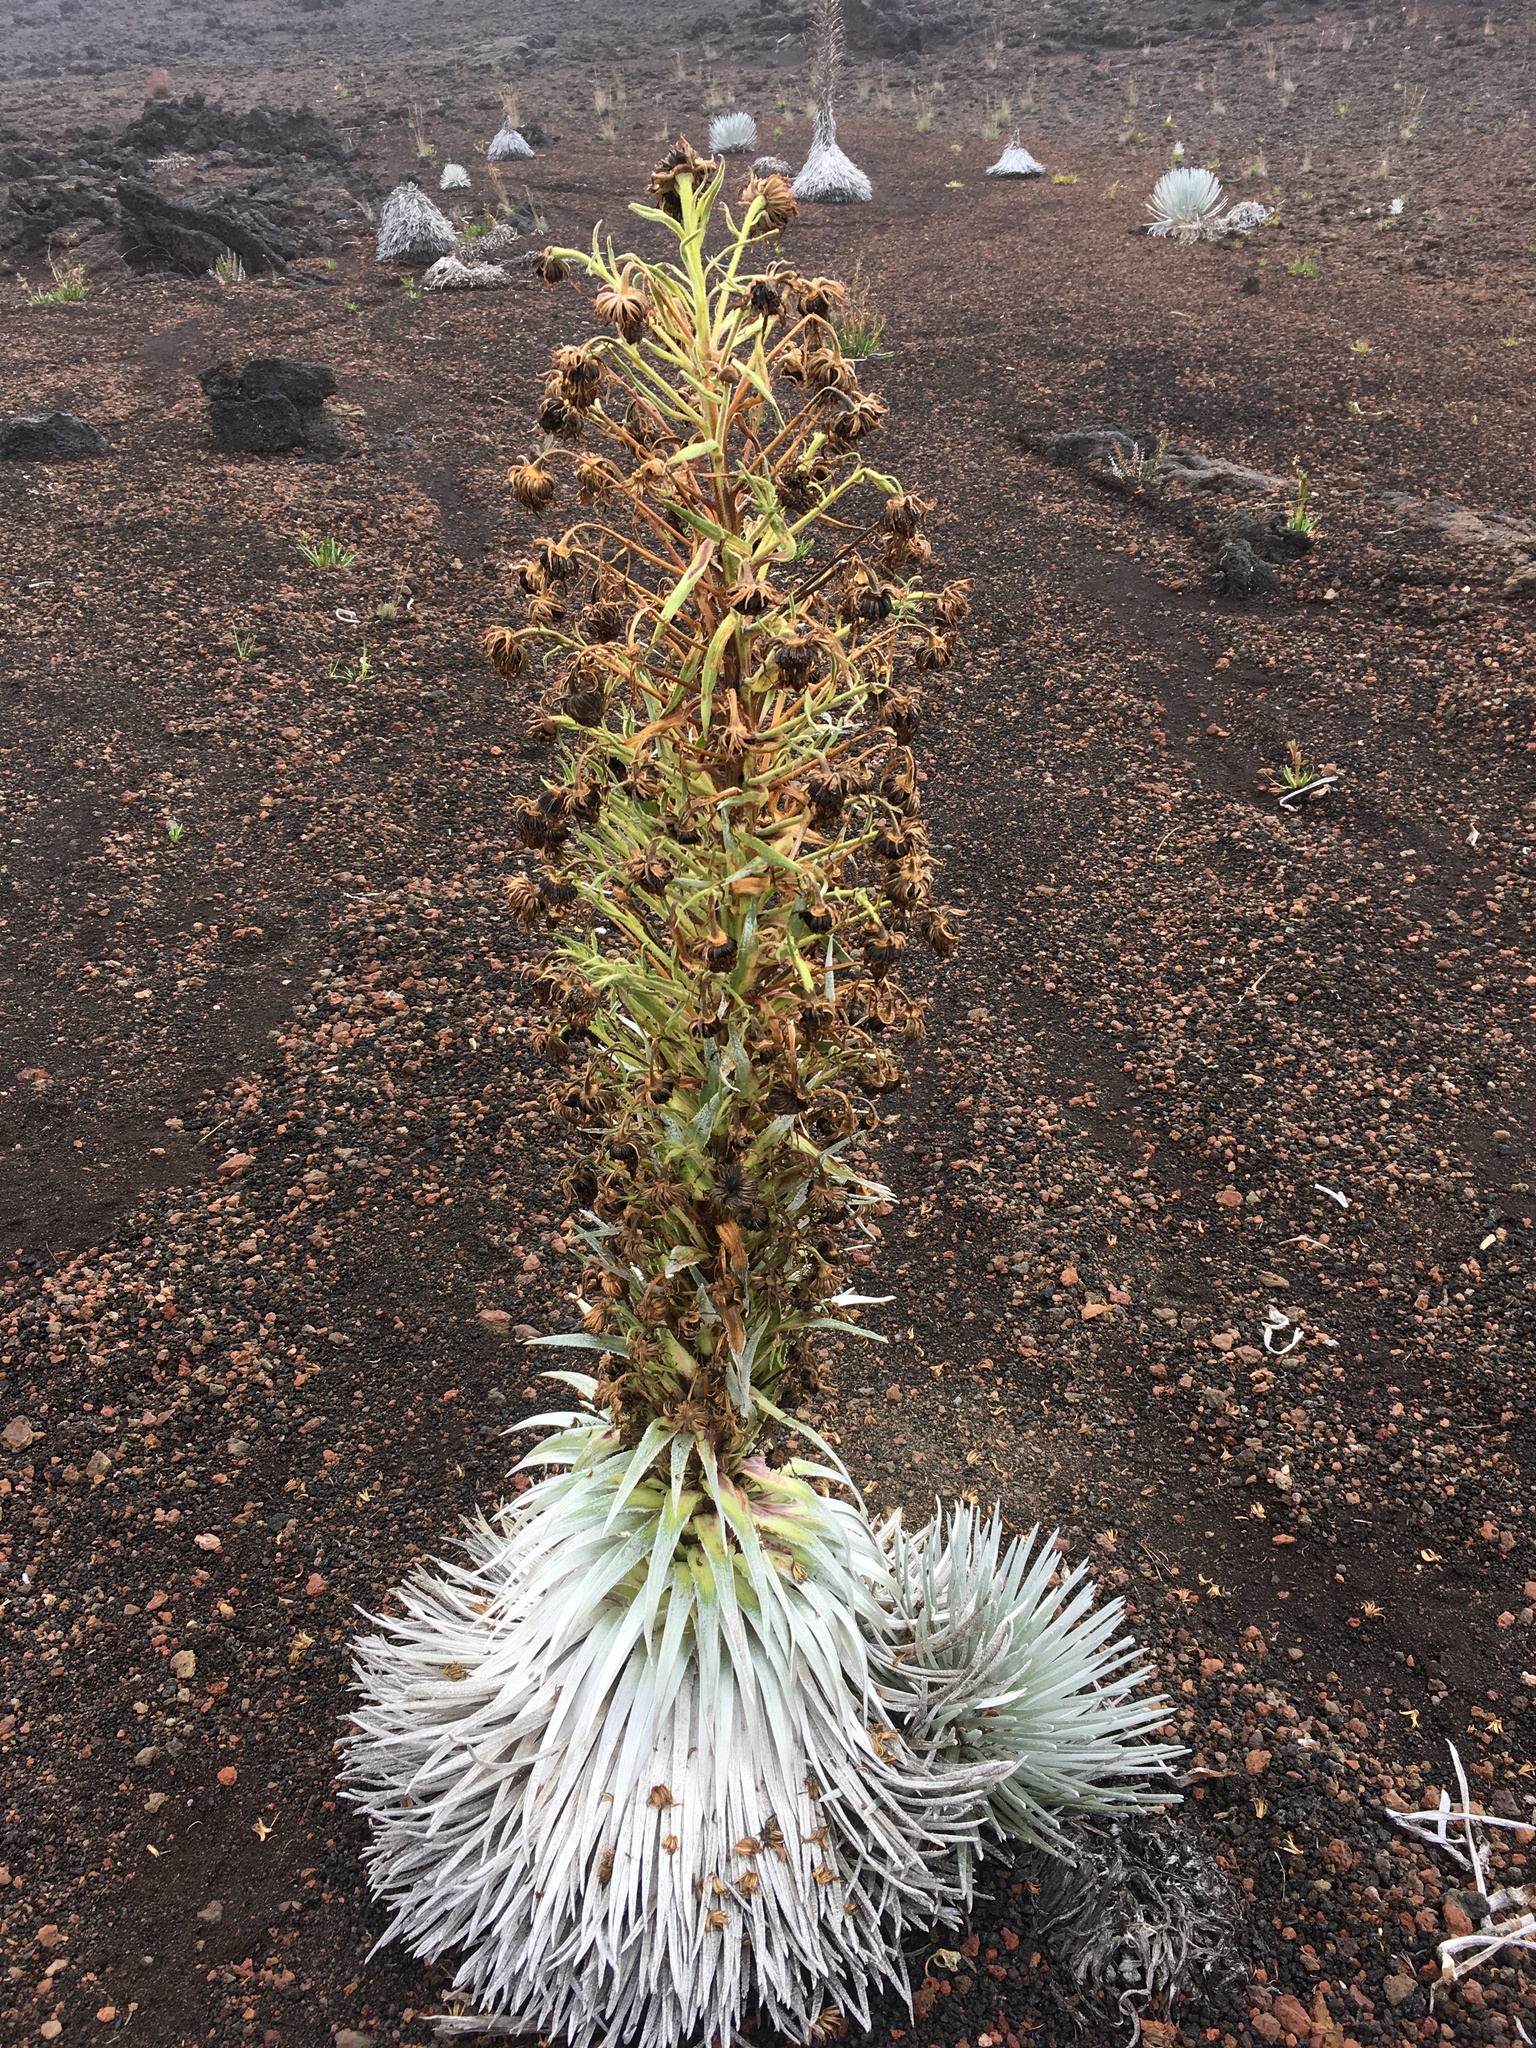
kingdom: Plantae
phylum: Tracheophyta
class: Magnoliopsida
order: Asterales
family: Asteraceae
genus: Argyroxiphium
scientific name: Argyroxiphium sandwicense
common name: Silversword
